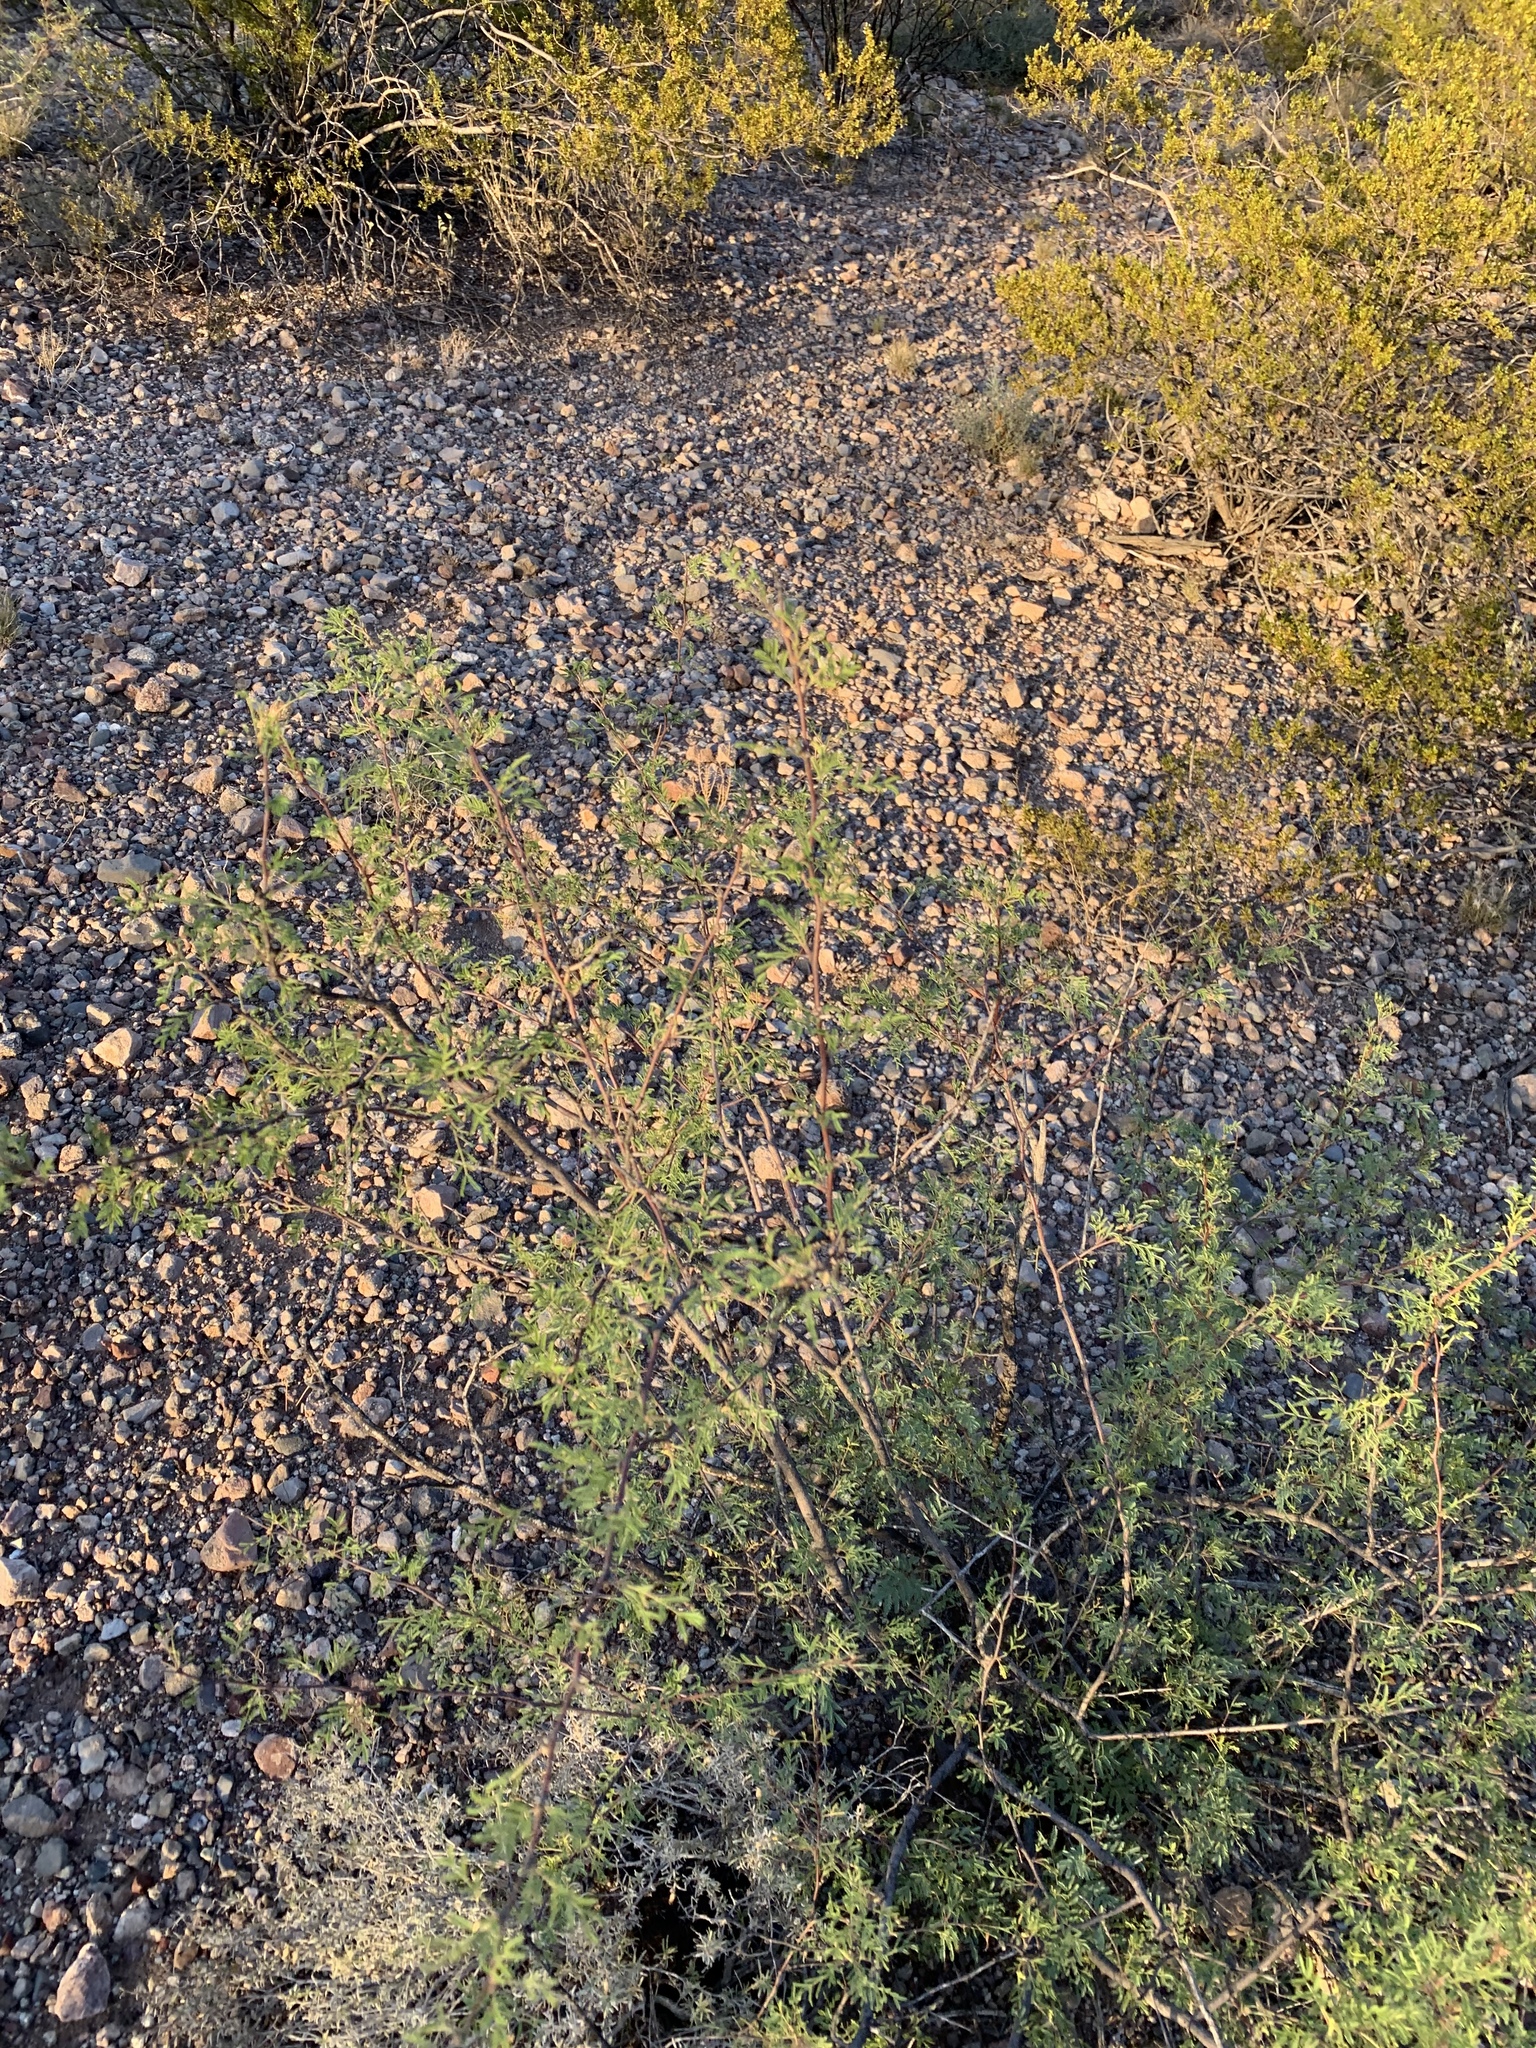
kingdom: Plantae
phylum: Tracheophyta
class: Magnoliopsida
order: Fabales
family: Fabaceae
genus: Vachellia
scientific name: Vachellia constricta
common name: Mescat acacia
